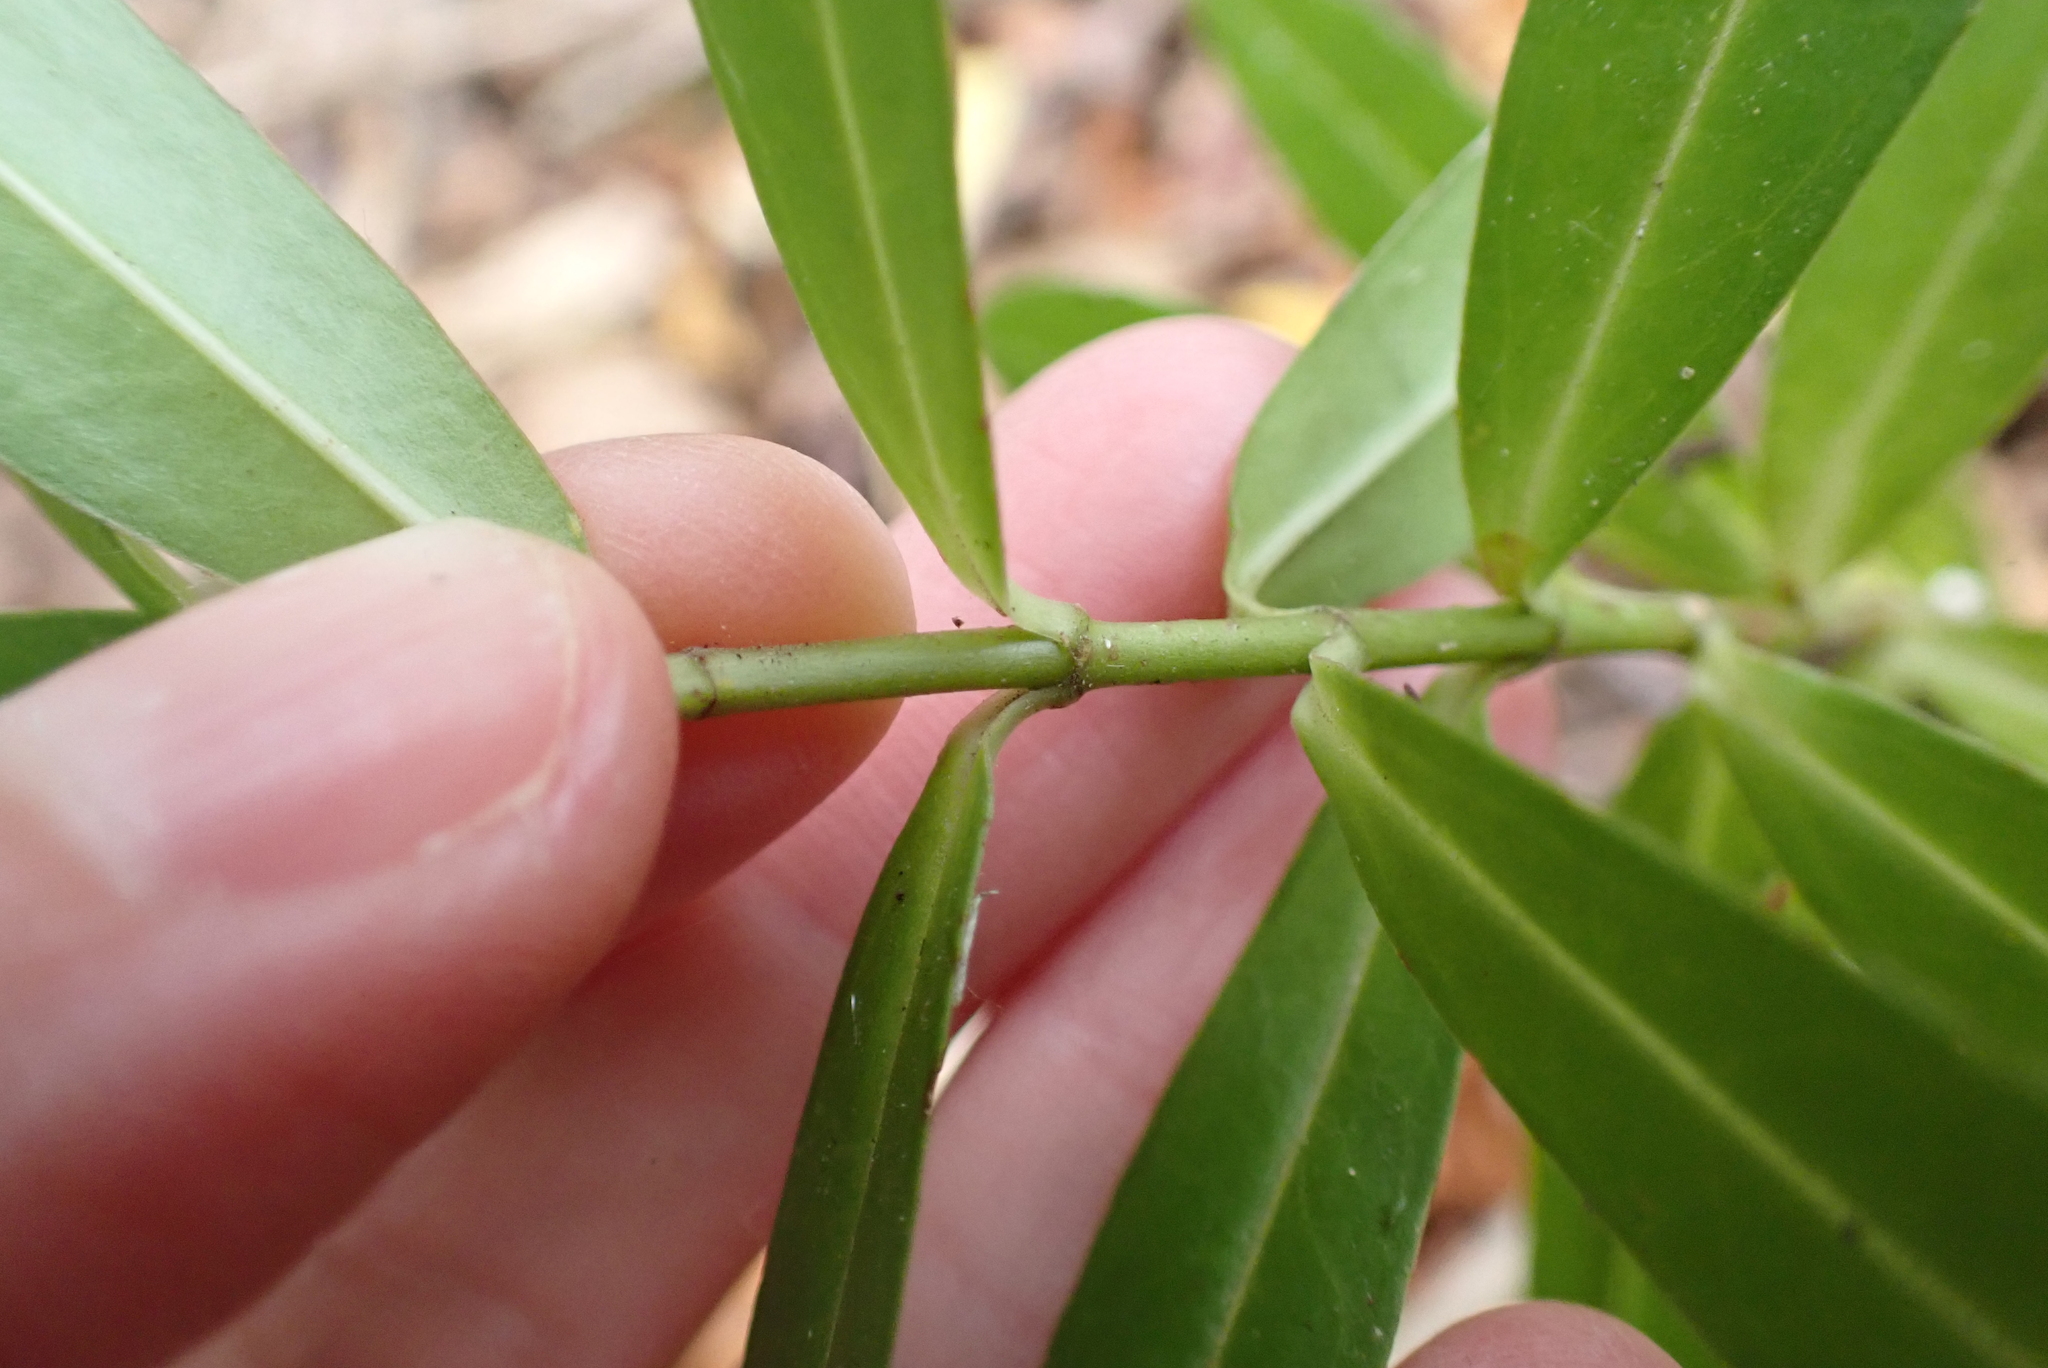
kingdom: Plantae
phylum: Tracheophyta
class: Magnoliopsida
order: Lamiales
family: Plantaginaceae
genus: Veronica
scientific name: Veronica salicifolia
